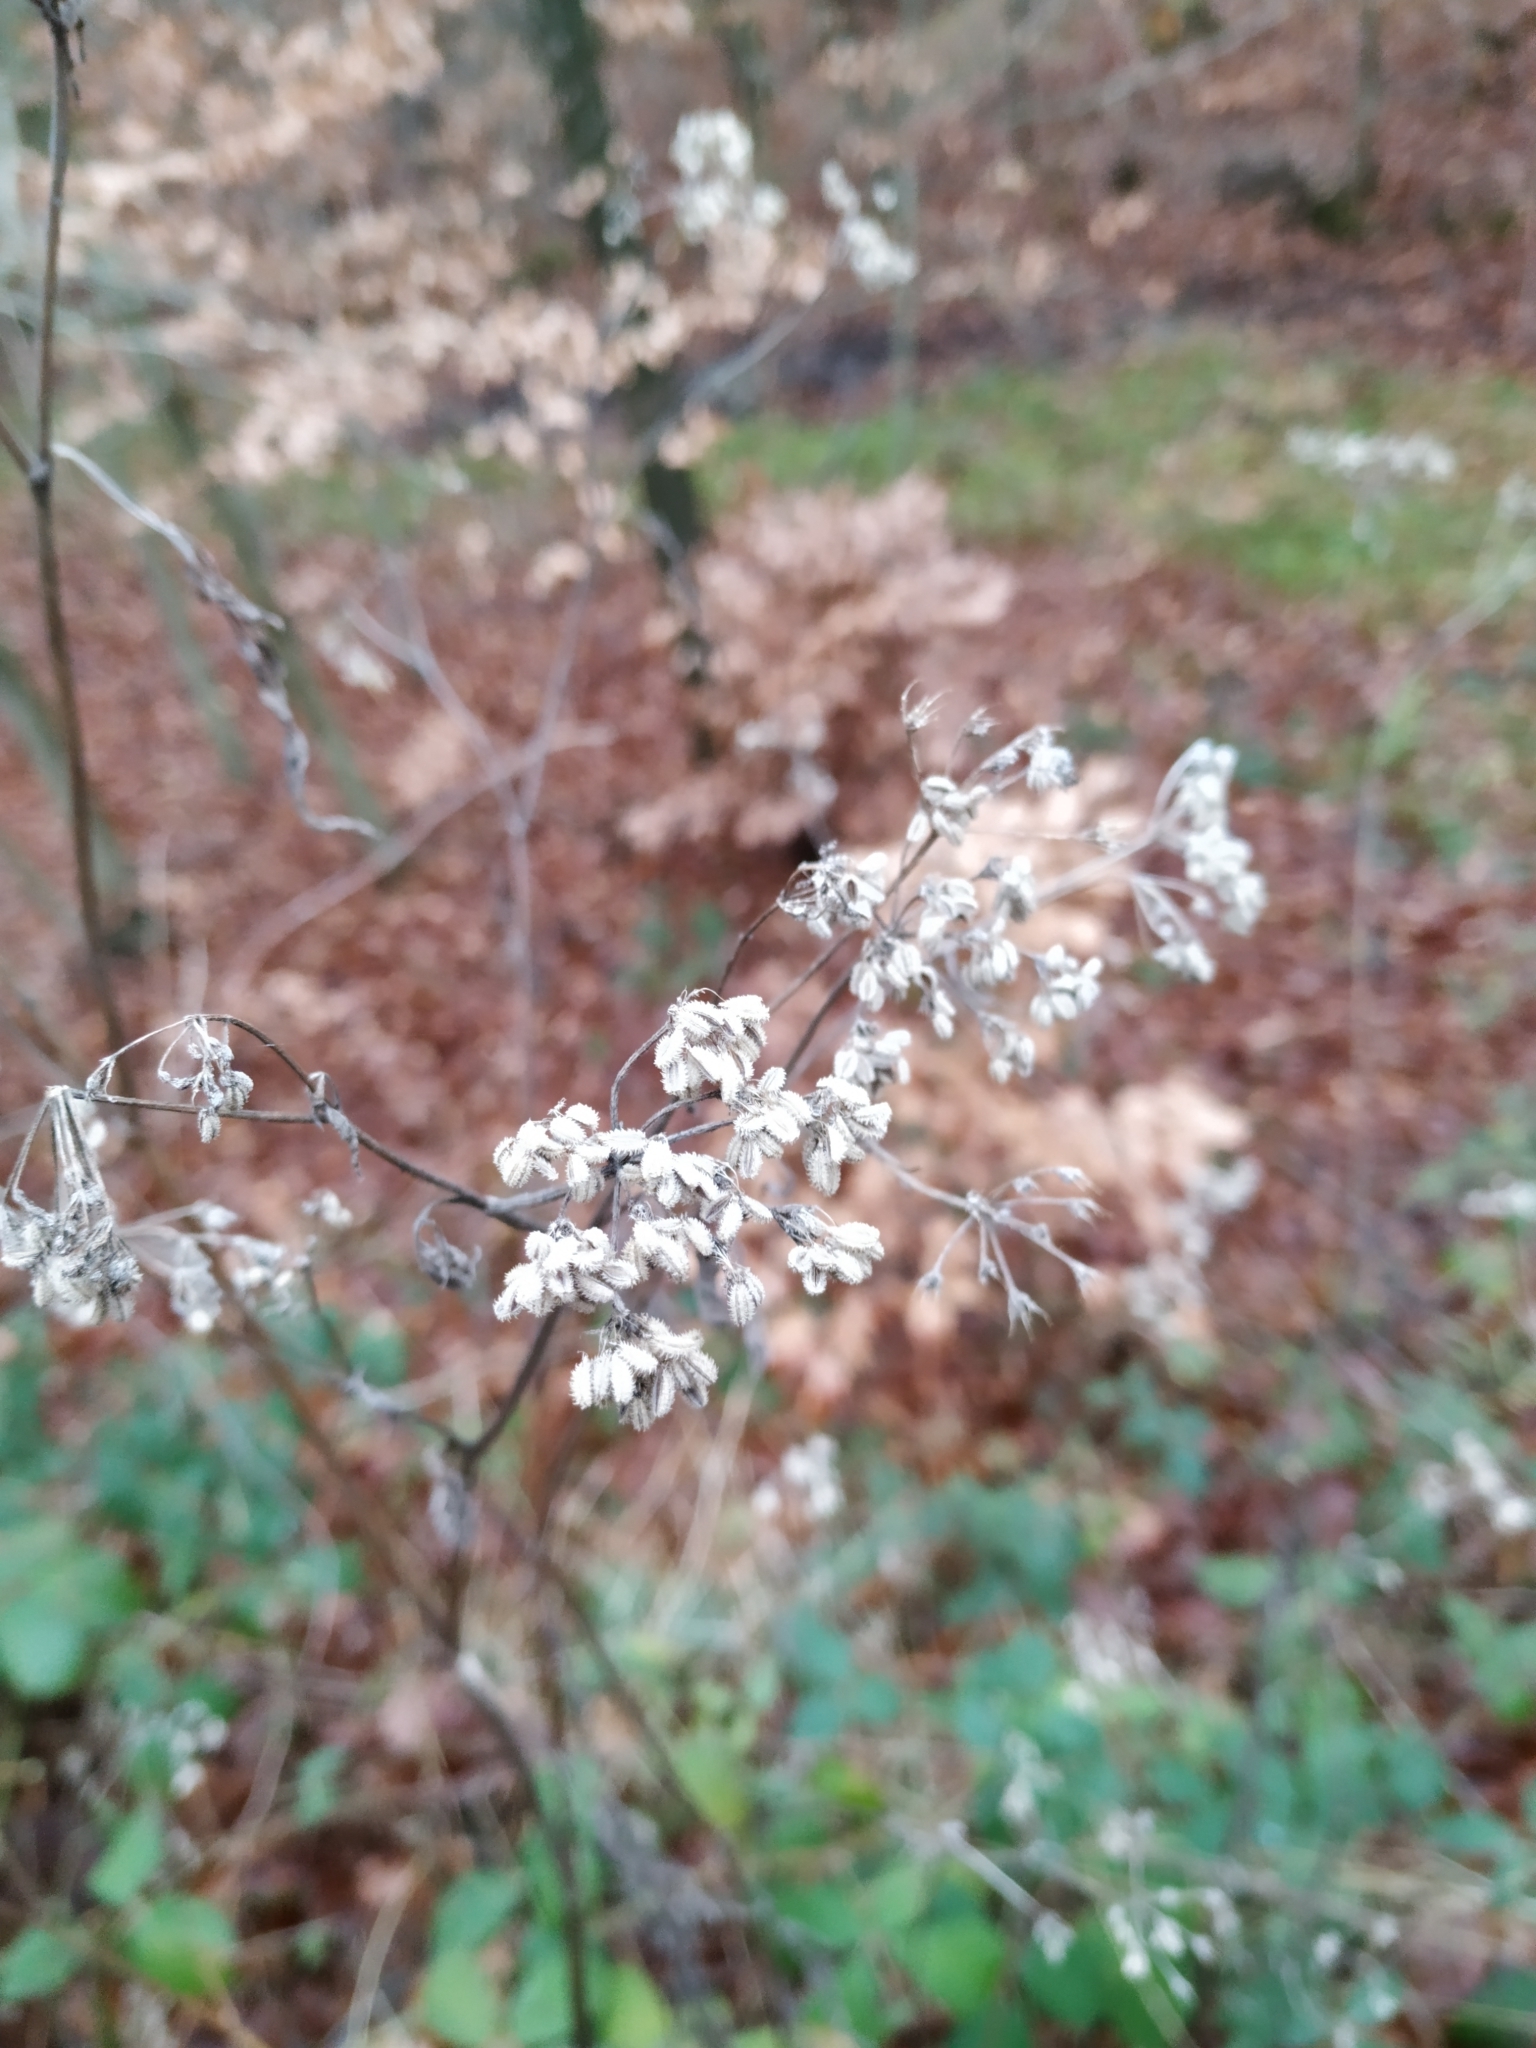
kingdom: Plantae
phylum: Tracheophyta
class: Magnoliopsida
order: Apiales
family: Apiaceae
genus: Torilis
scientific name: Torilis japonica
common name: Upright hedge-parsley
